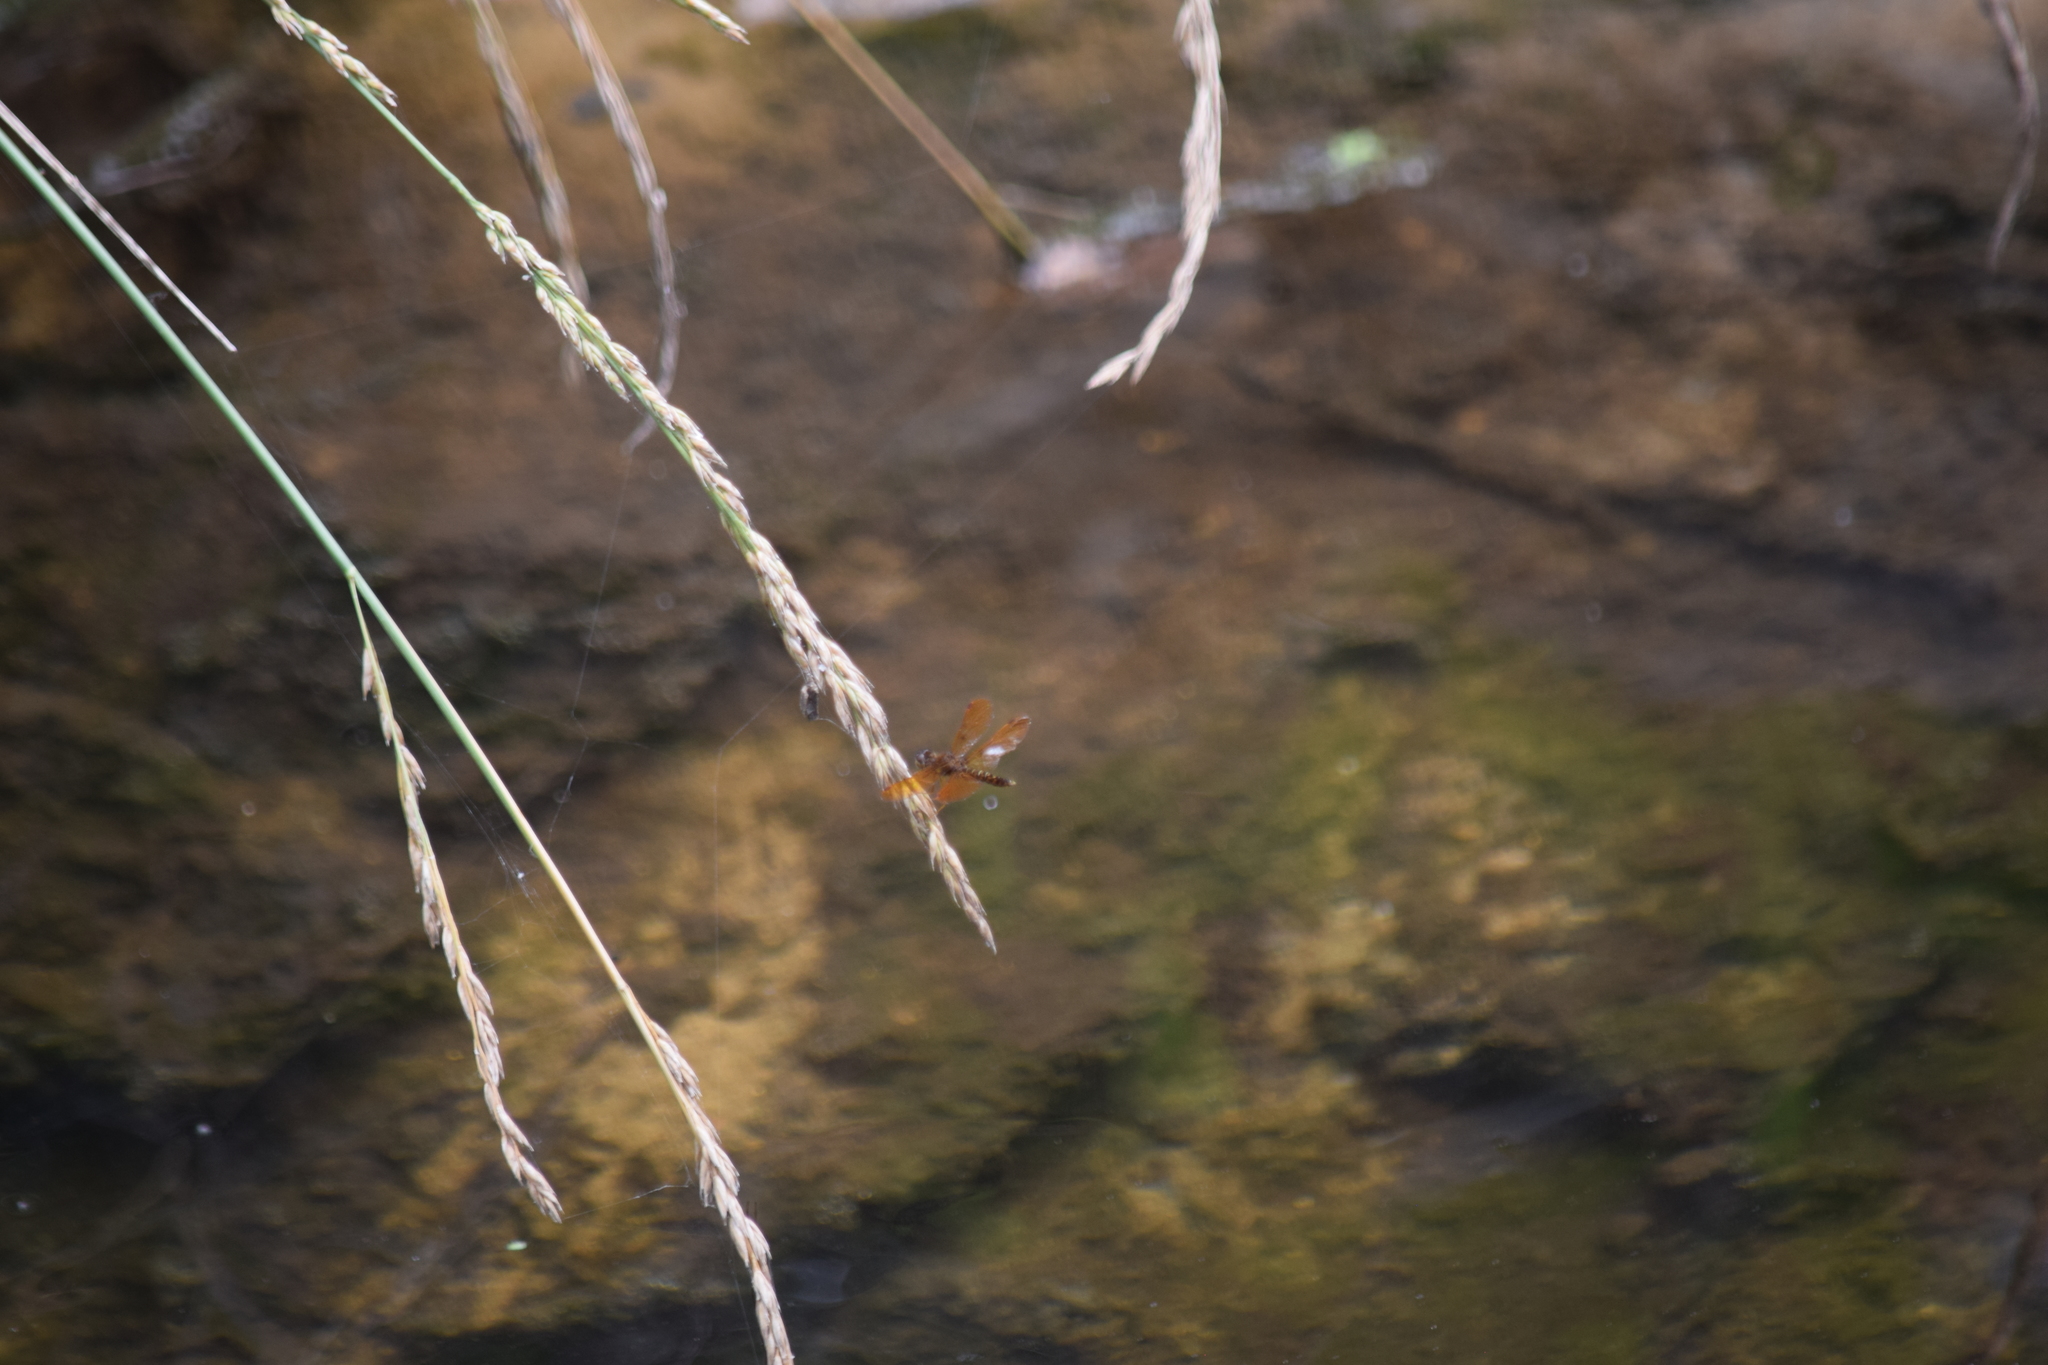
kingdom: Animalia
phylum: Arthropoda
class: Insecta
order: Odonata
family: Libellulidae
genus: Perithemis
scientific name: Perithemis tenera
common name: Eastern amberwing
